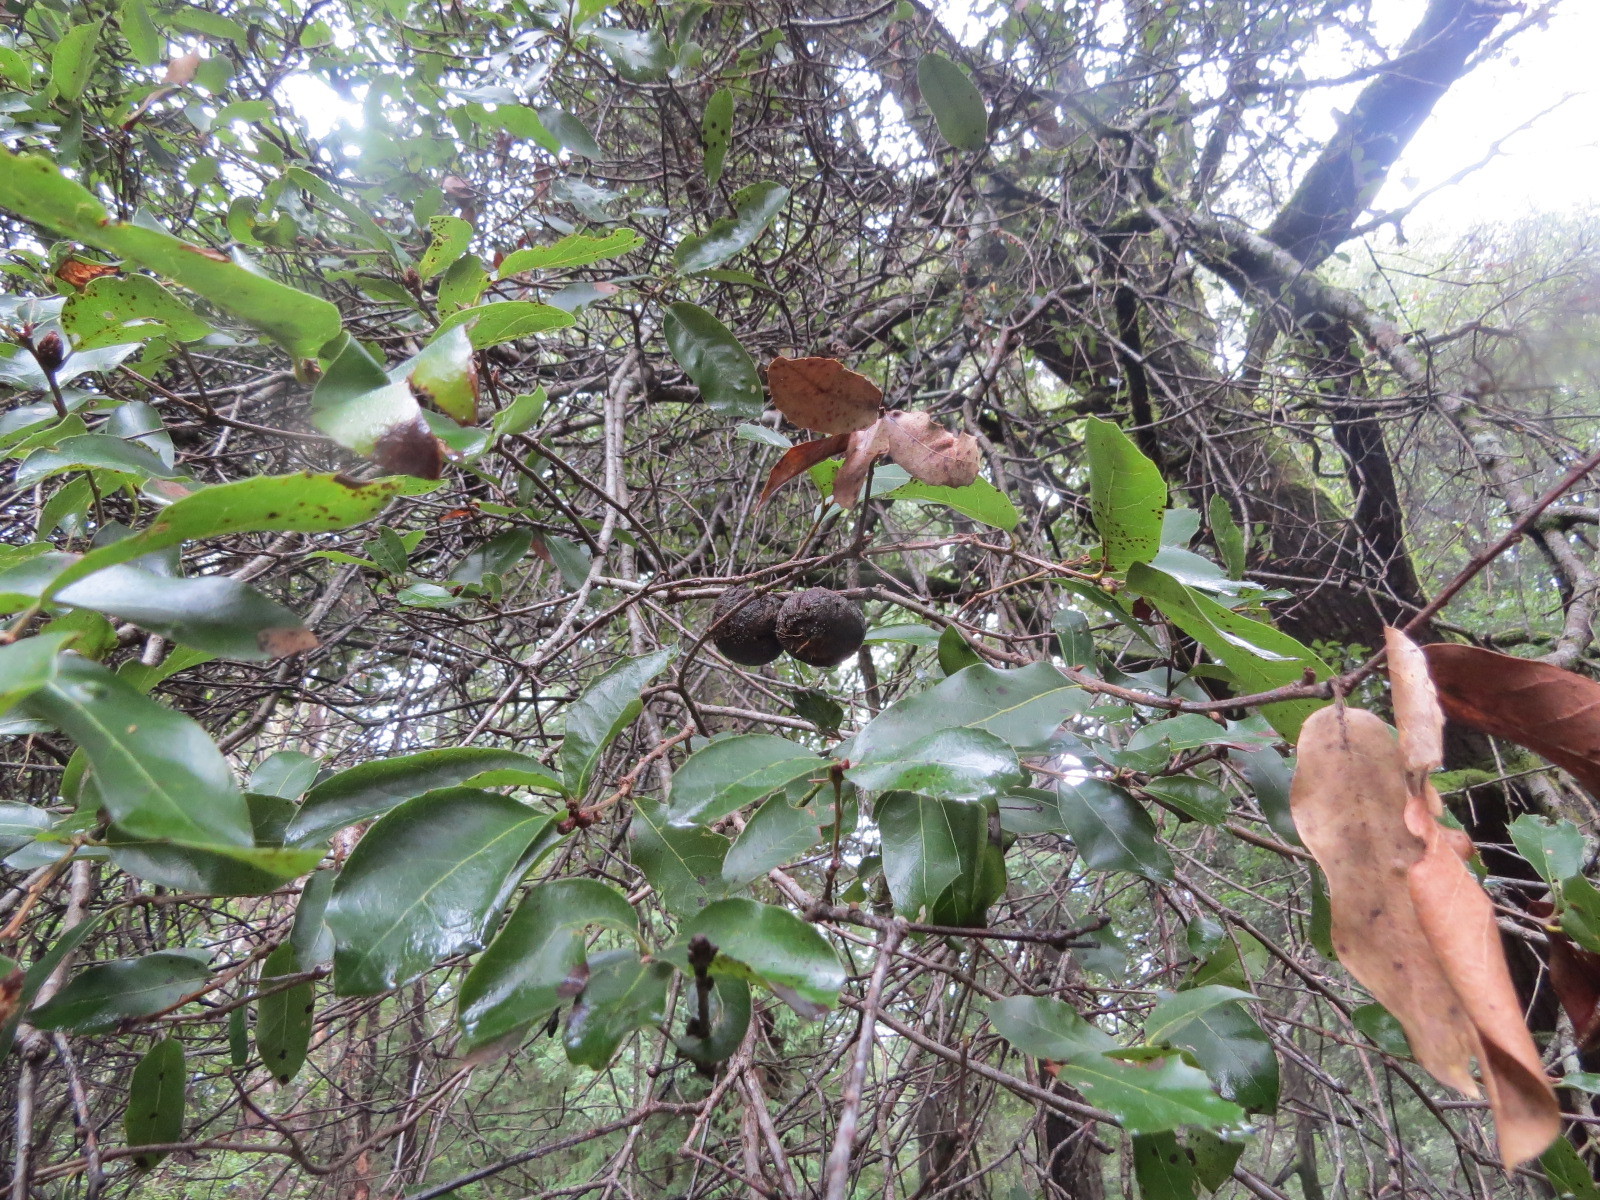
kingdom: Plantae
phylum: Tracheophyta
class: Magnoliopsida
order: Fagales
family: Fagaceae
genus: Quercus
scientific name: Quercus parvula
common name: Santa cruz island oak
